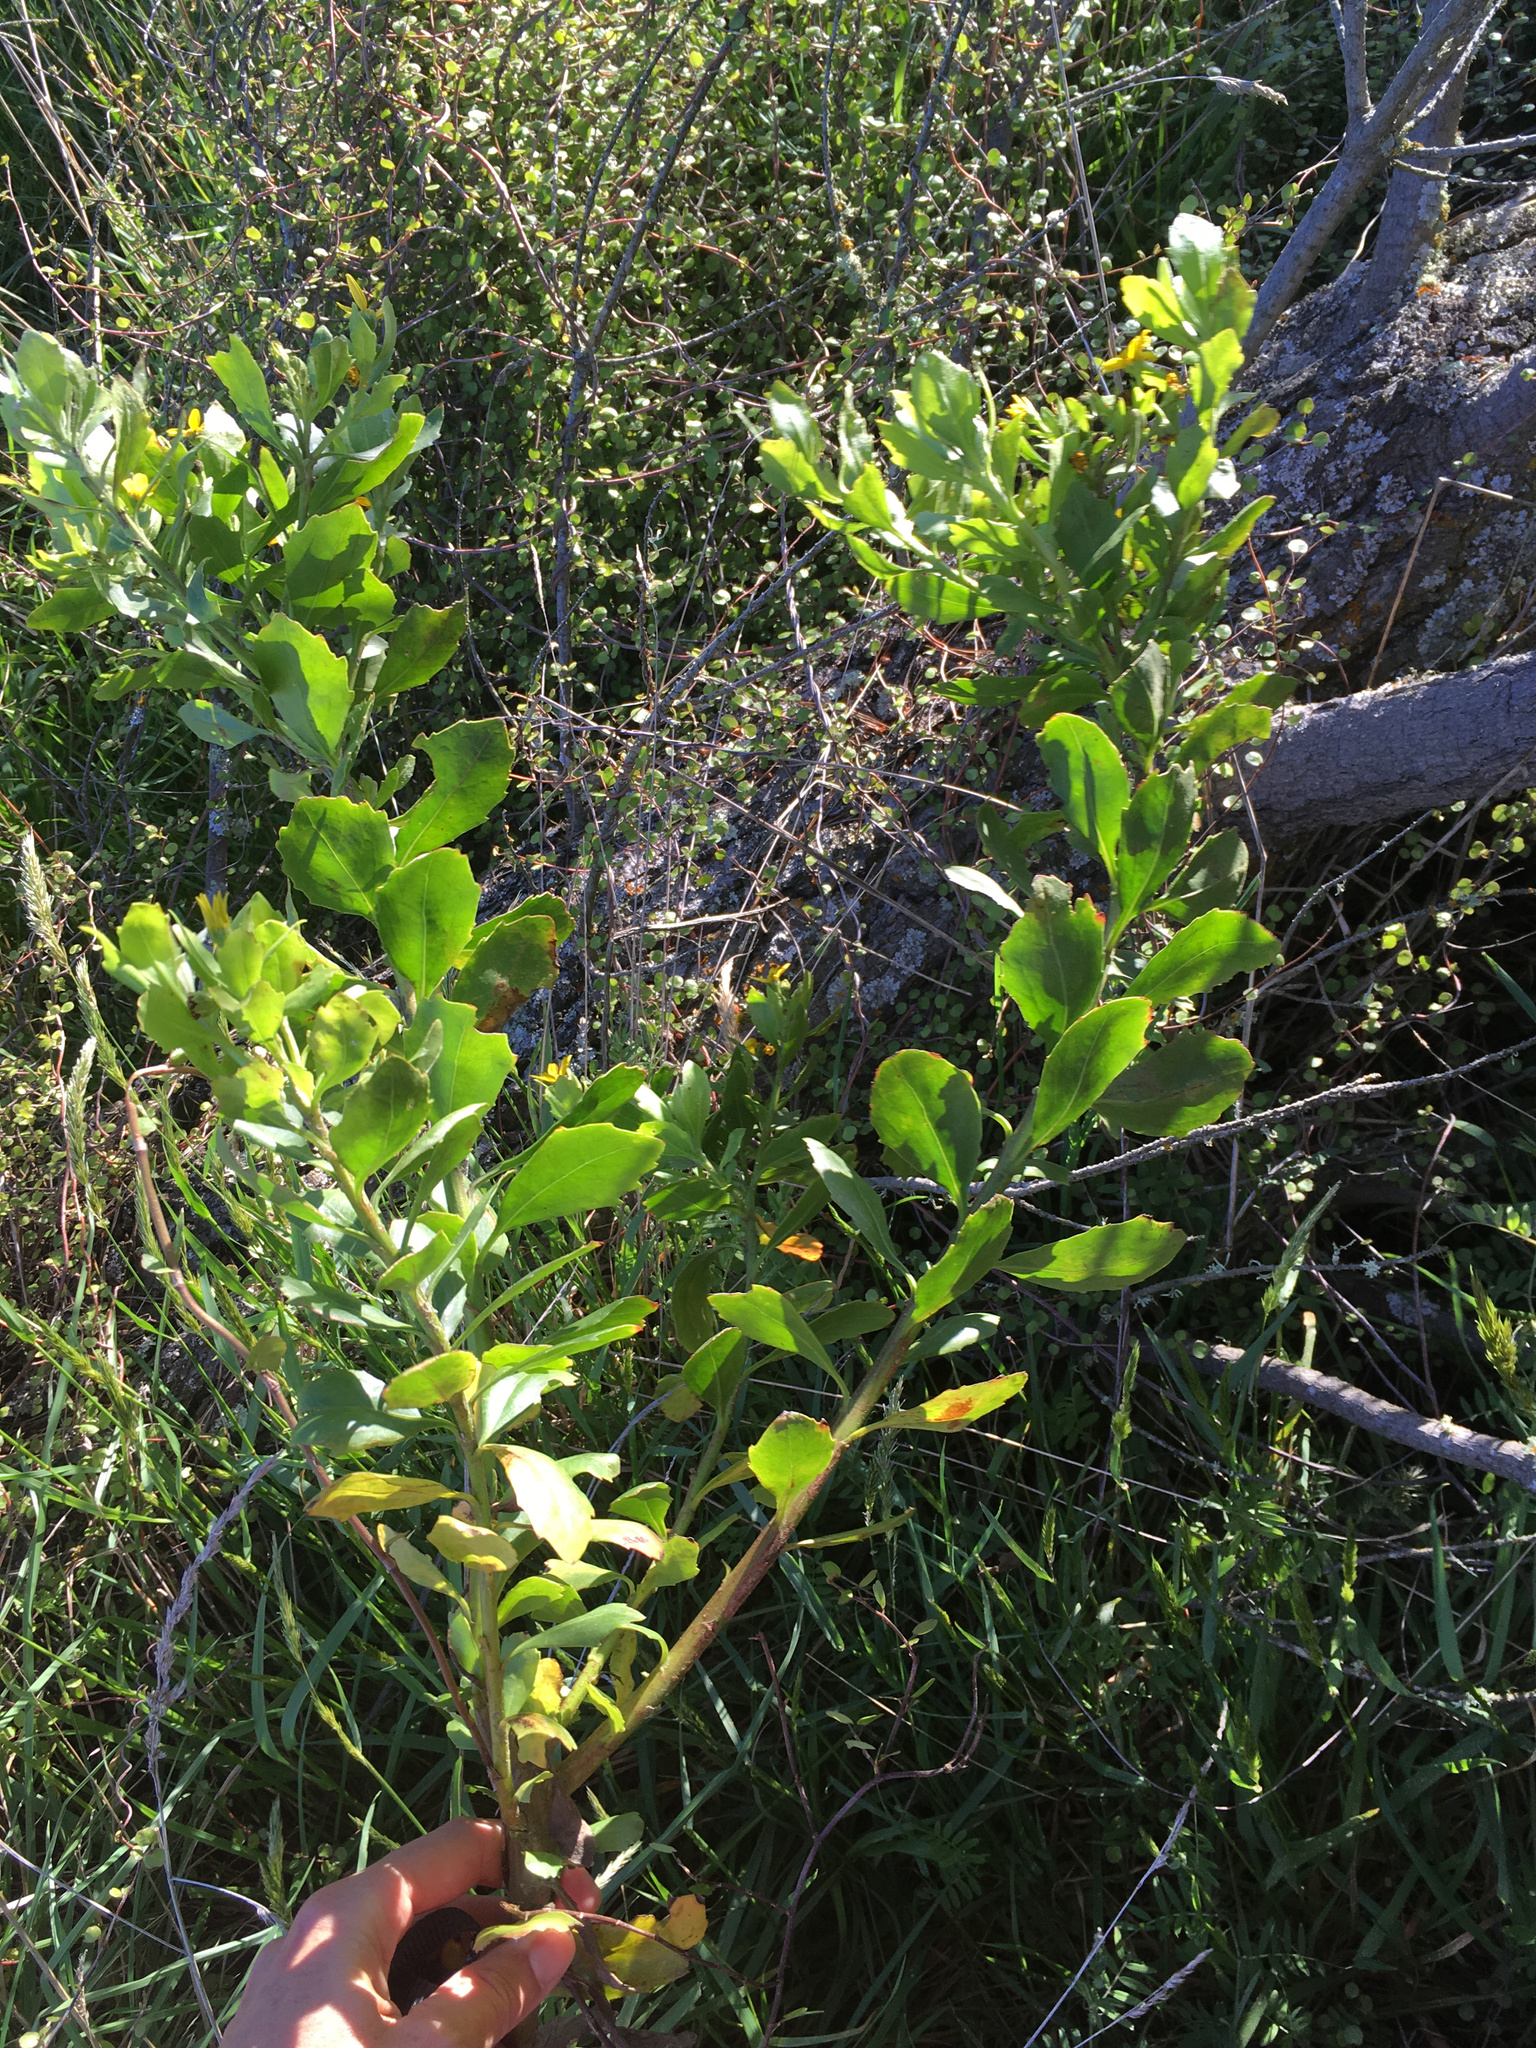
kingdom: Plantae
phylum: Tracheophyta
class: Magnoliopsida
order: Asterales
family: Asteraceae
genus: Osteospermum
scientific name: Osteospermum moniliferum
